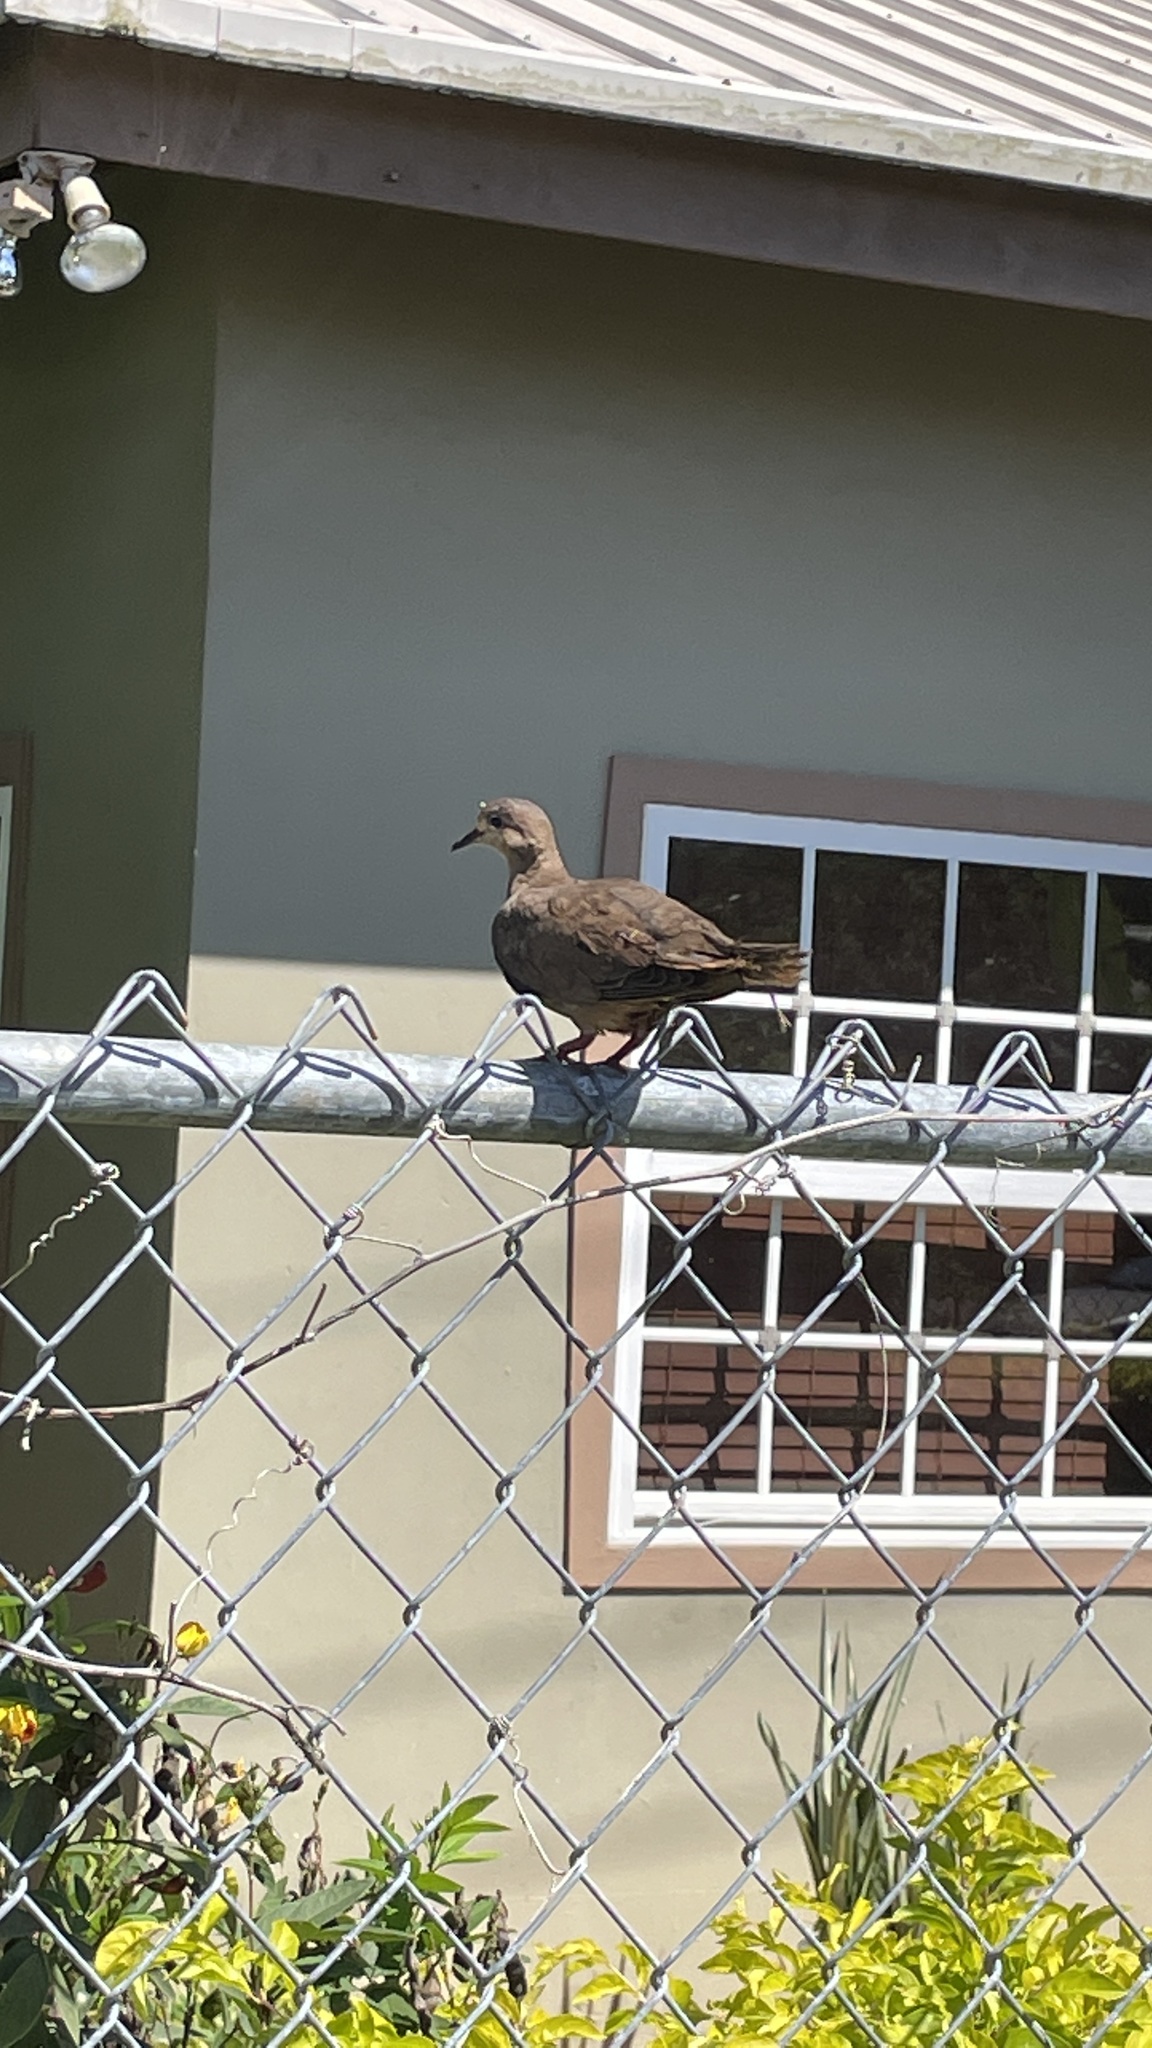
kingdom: Animalia
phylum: Chordata
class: Aves
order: Columbiformes
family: Columbidae
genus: Zenaida
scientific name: Zenaida auriculata
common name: Eared dove
